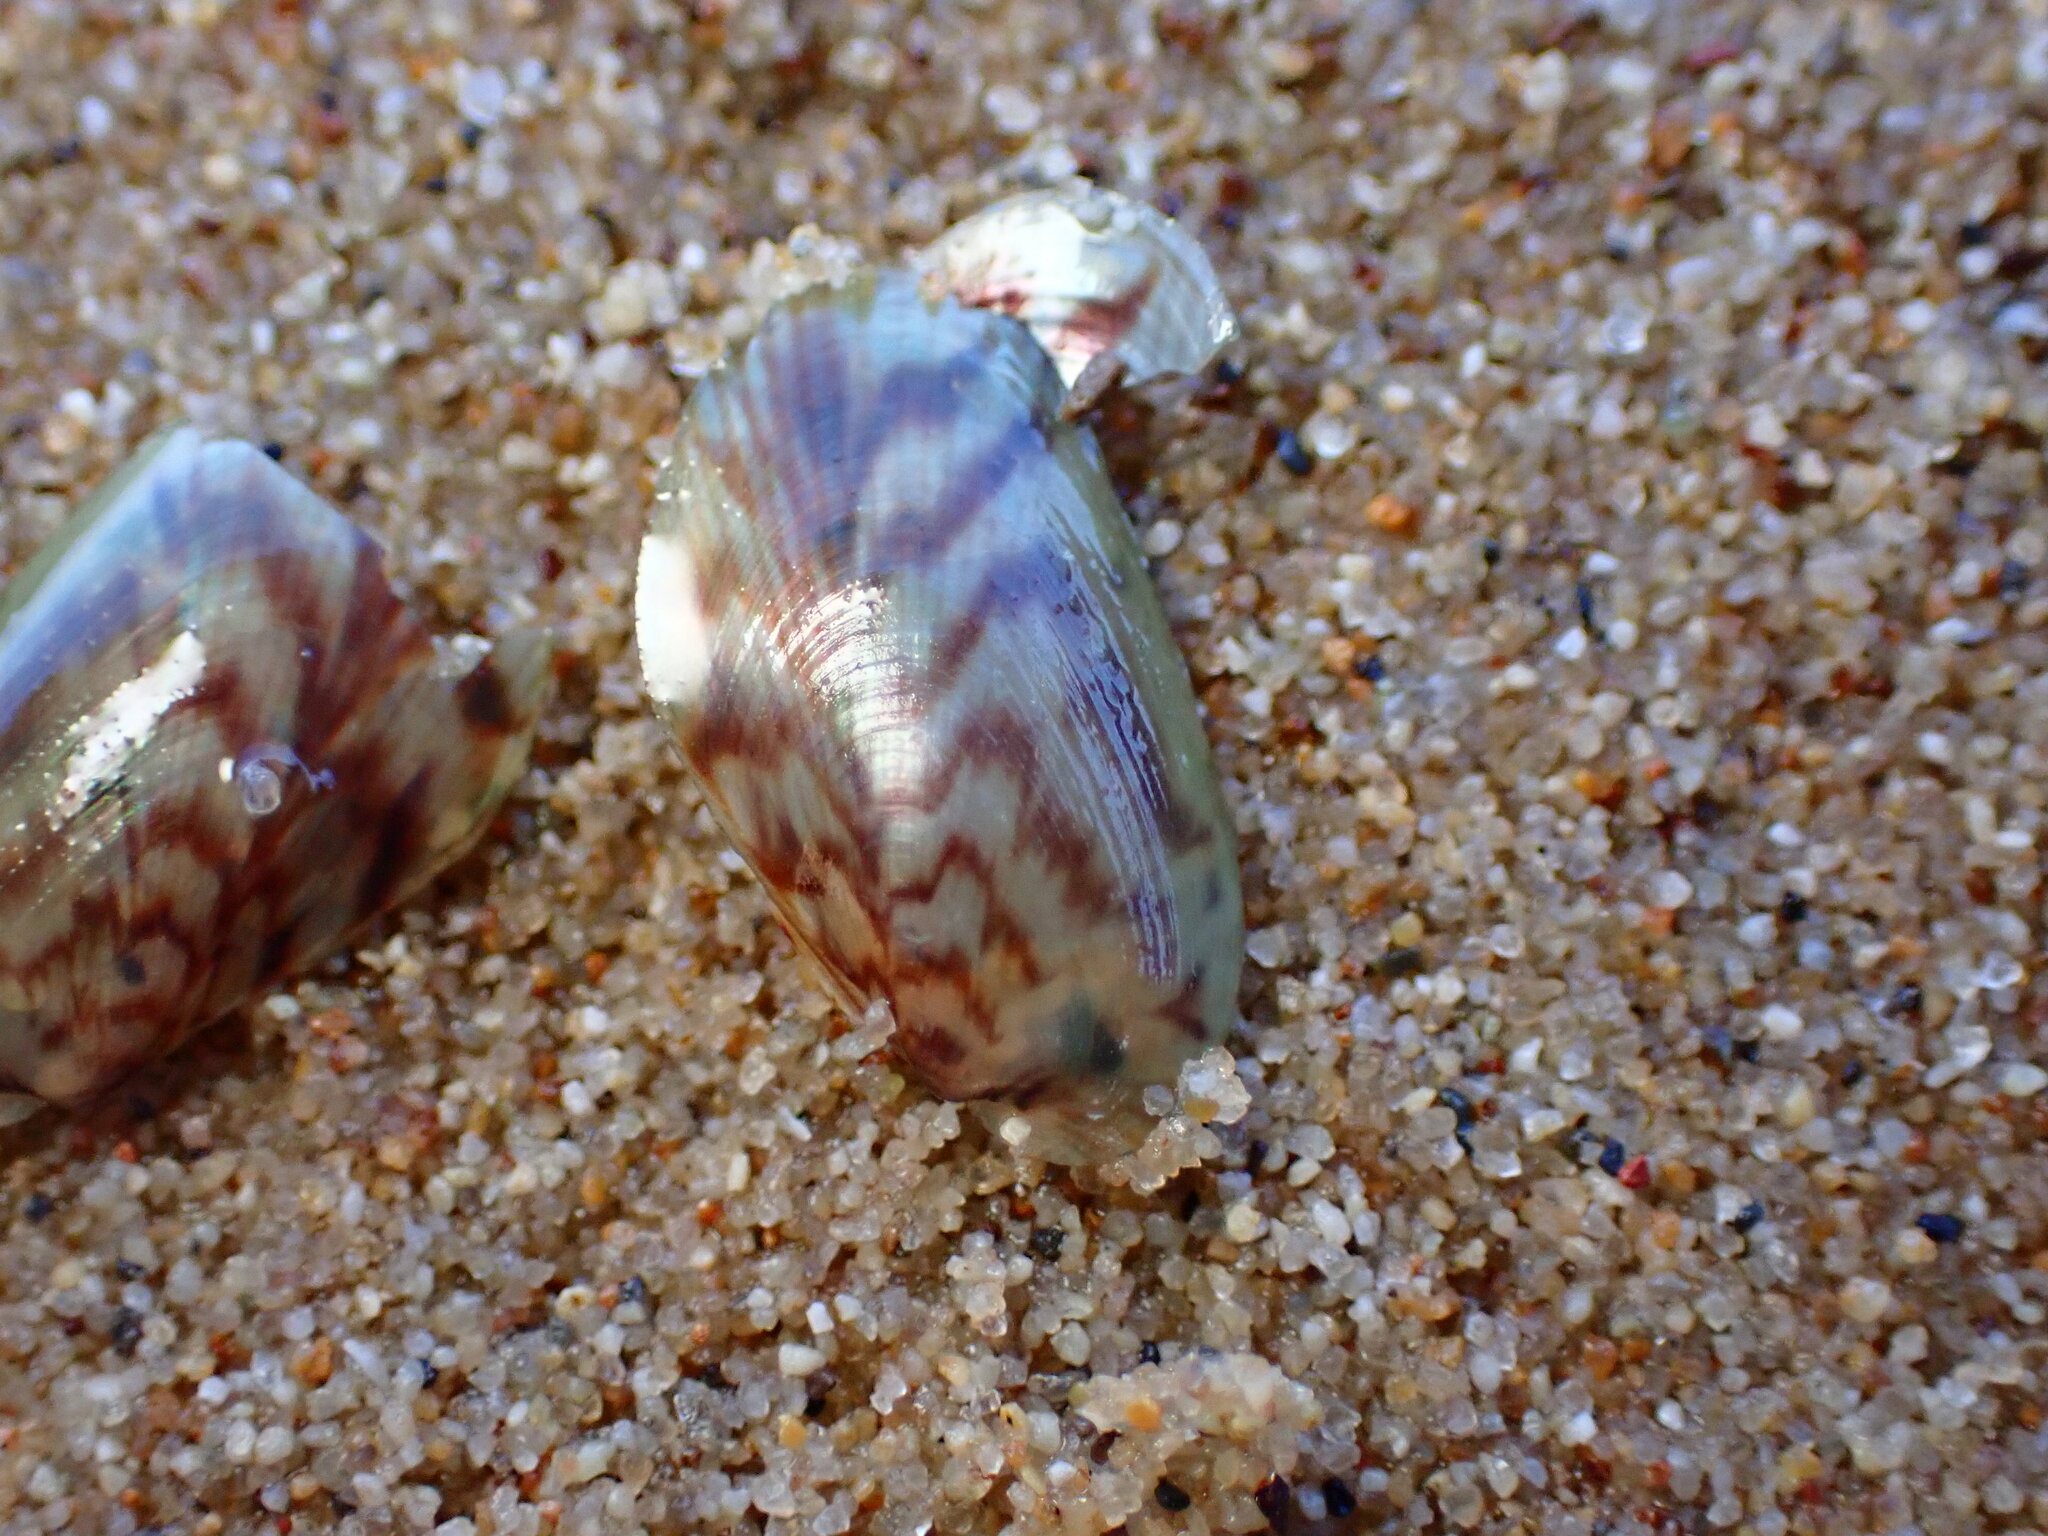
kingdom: Animalia
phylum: Mollusca
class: Bivalvia
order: Mytilida
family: Mytilidae
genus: Arcuatula
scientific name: Arcuatula senhousia
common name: Asian mussel
